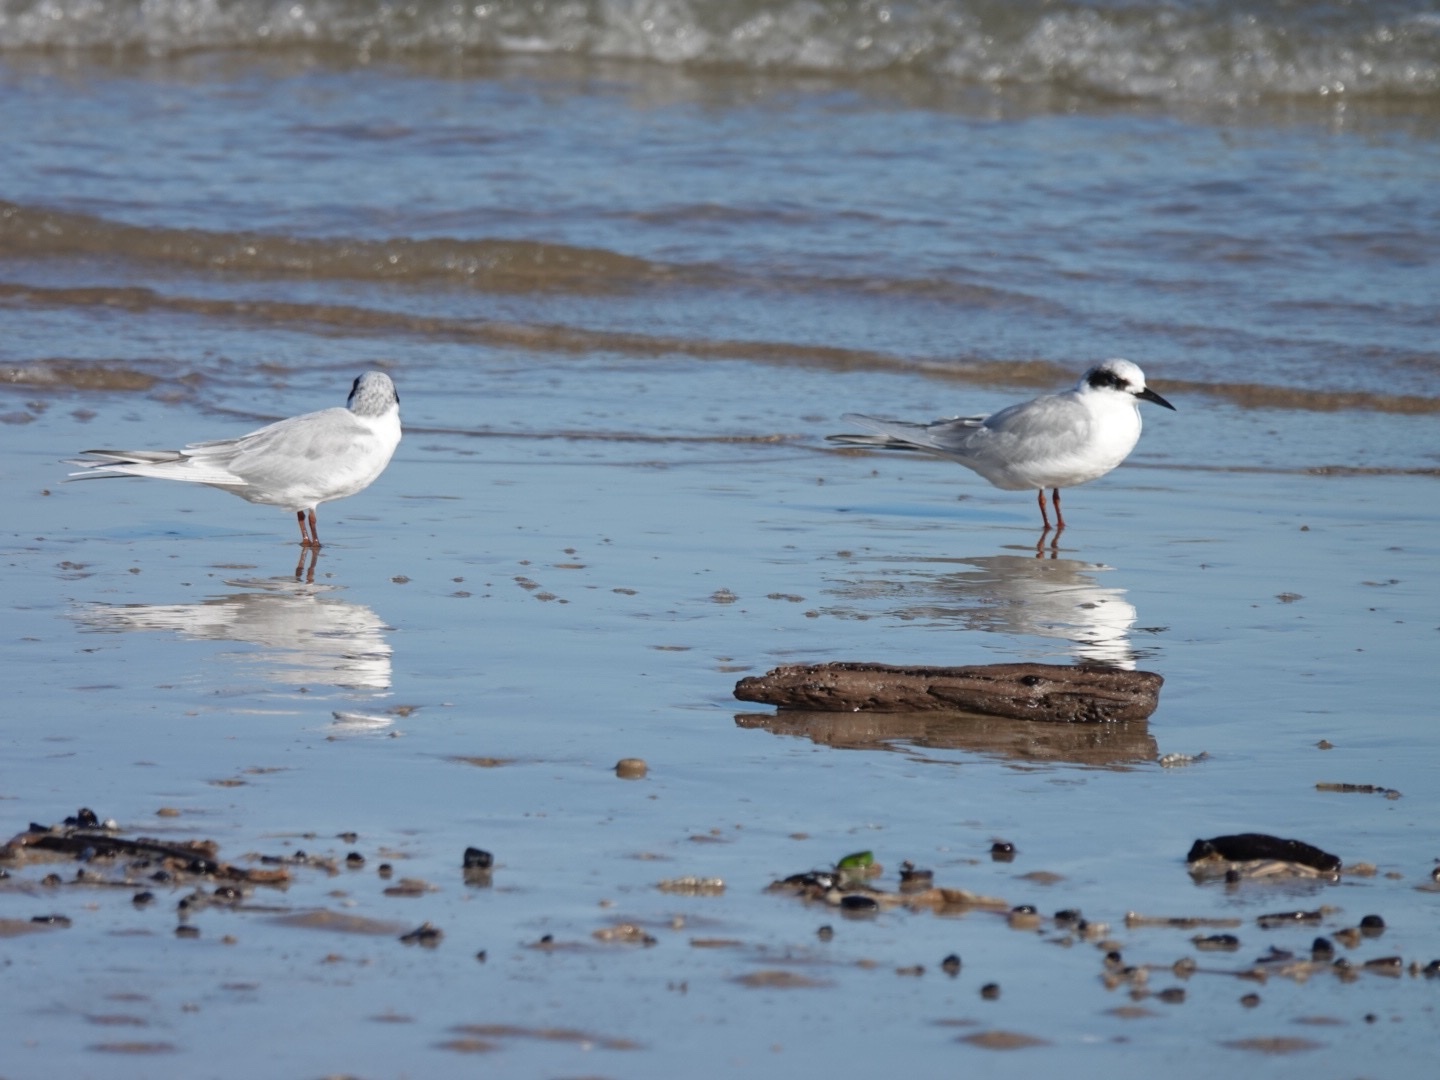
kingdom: Animalia
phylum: Chordata
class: Aves
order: Charadriiformes
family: Laridae
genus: Sterna
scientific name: Sterna forsteri
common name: Forster's tern
